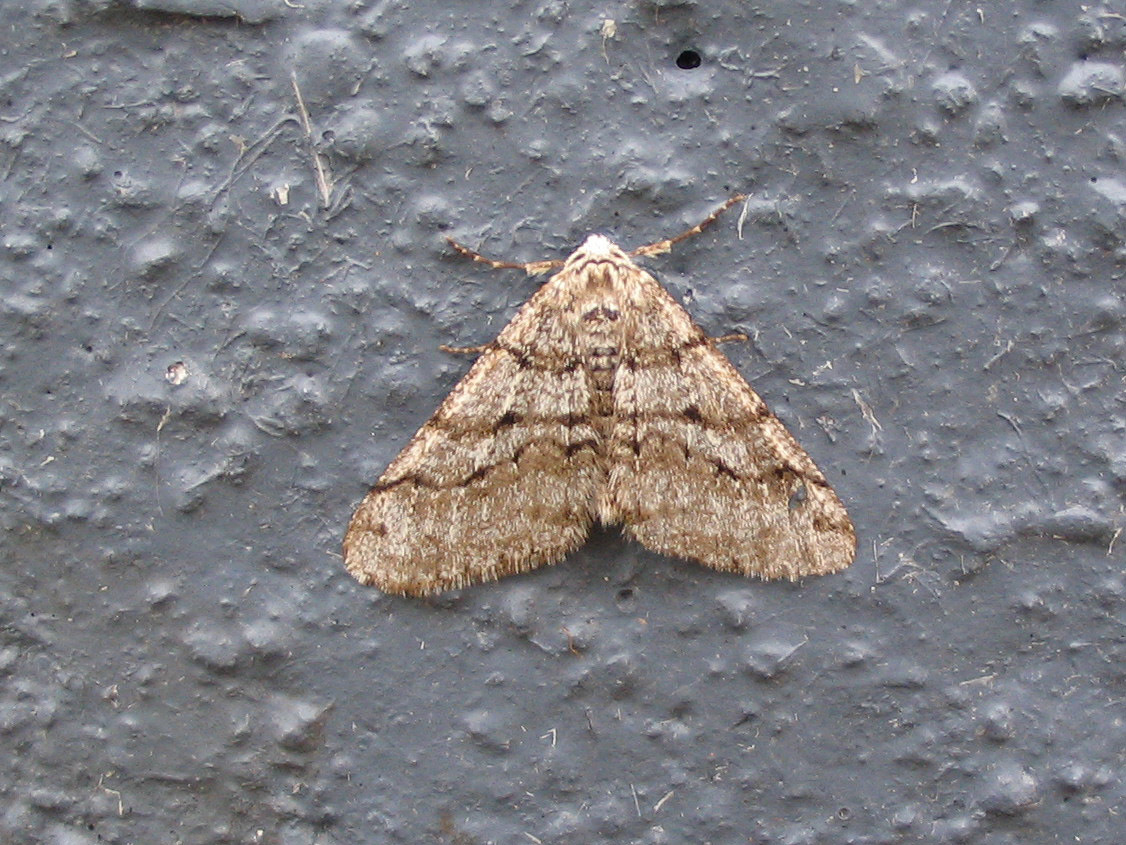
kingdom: Animalia
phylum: Arthropoda
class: Insecta
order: Lepidoptera
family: Geometridae
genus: Phigalia
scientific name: Phigalia titea
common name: Spiny looper
